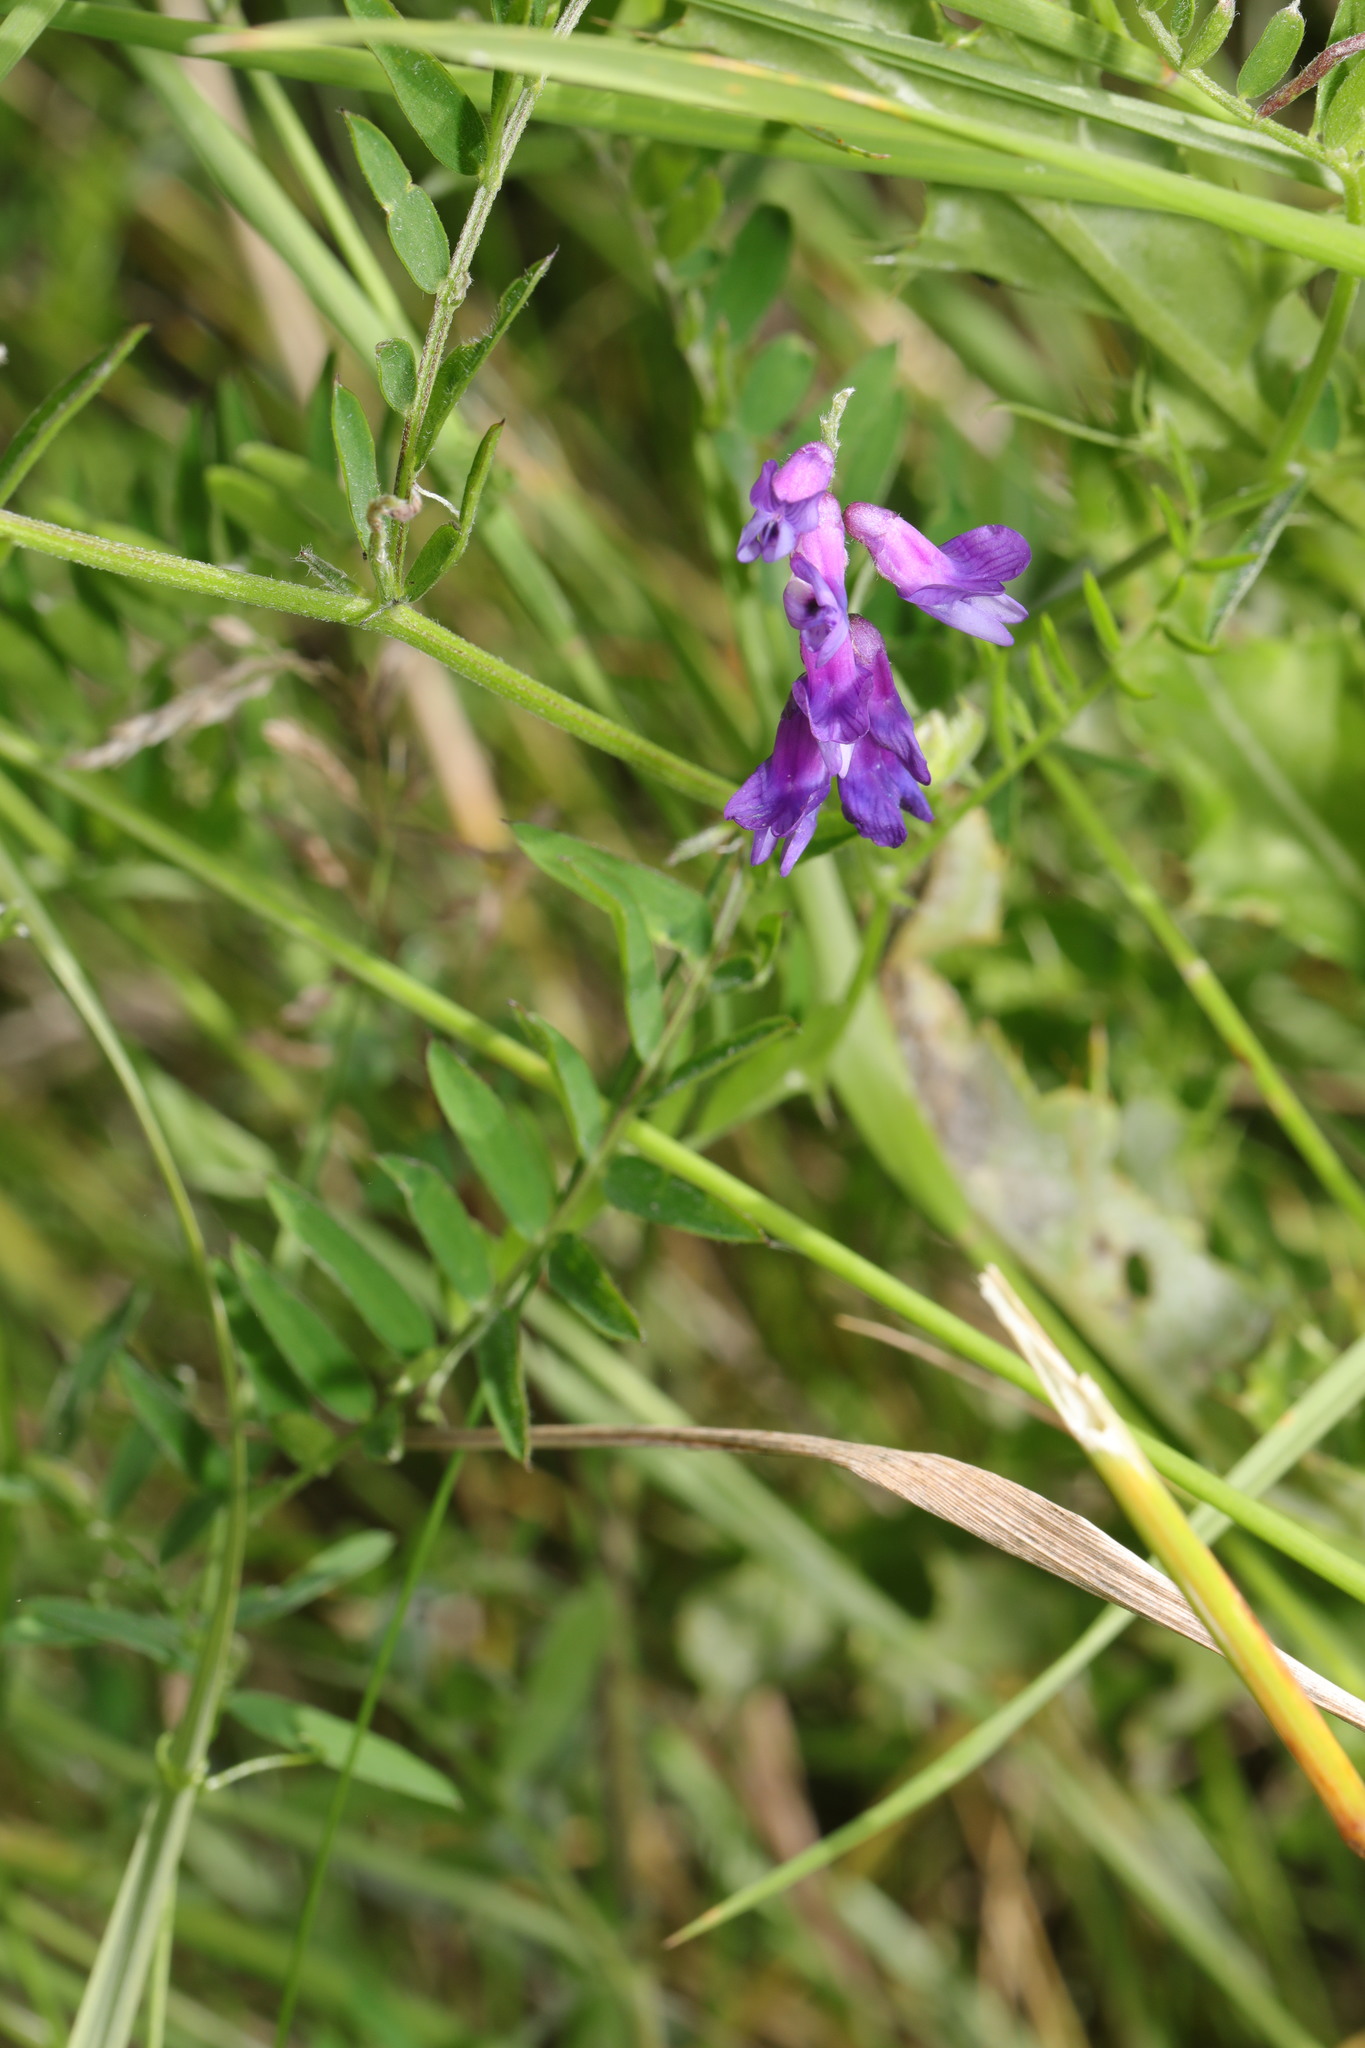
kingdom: Plantae
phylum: Tracheophyta
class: Magnoliopsida
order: Fabales
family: Fabaceae
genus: Vicia
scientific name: Vicia cracca
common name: Bird vetch
